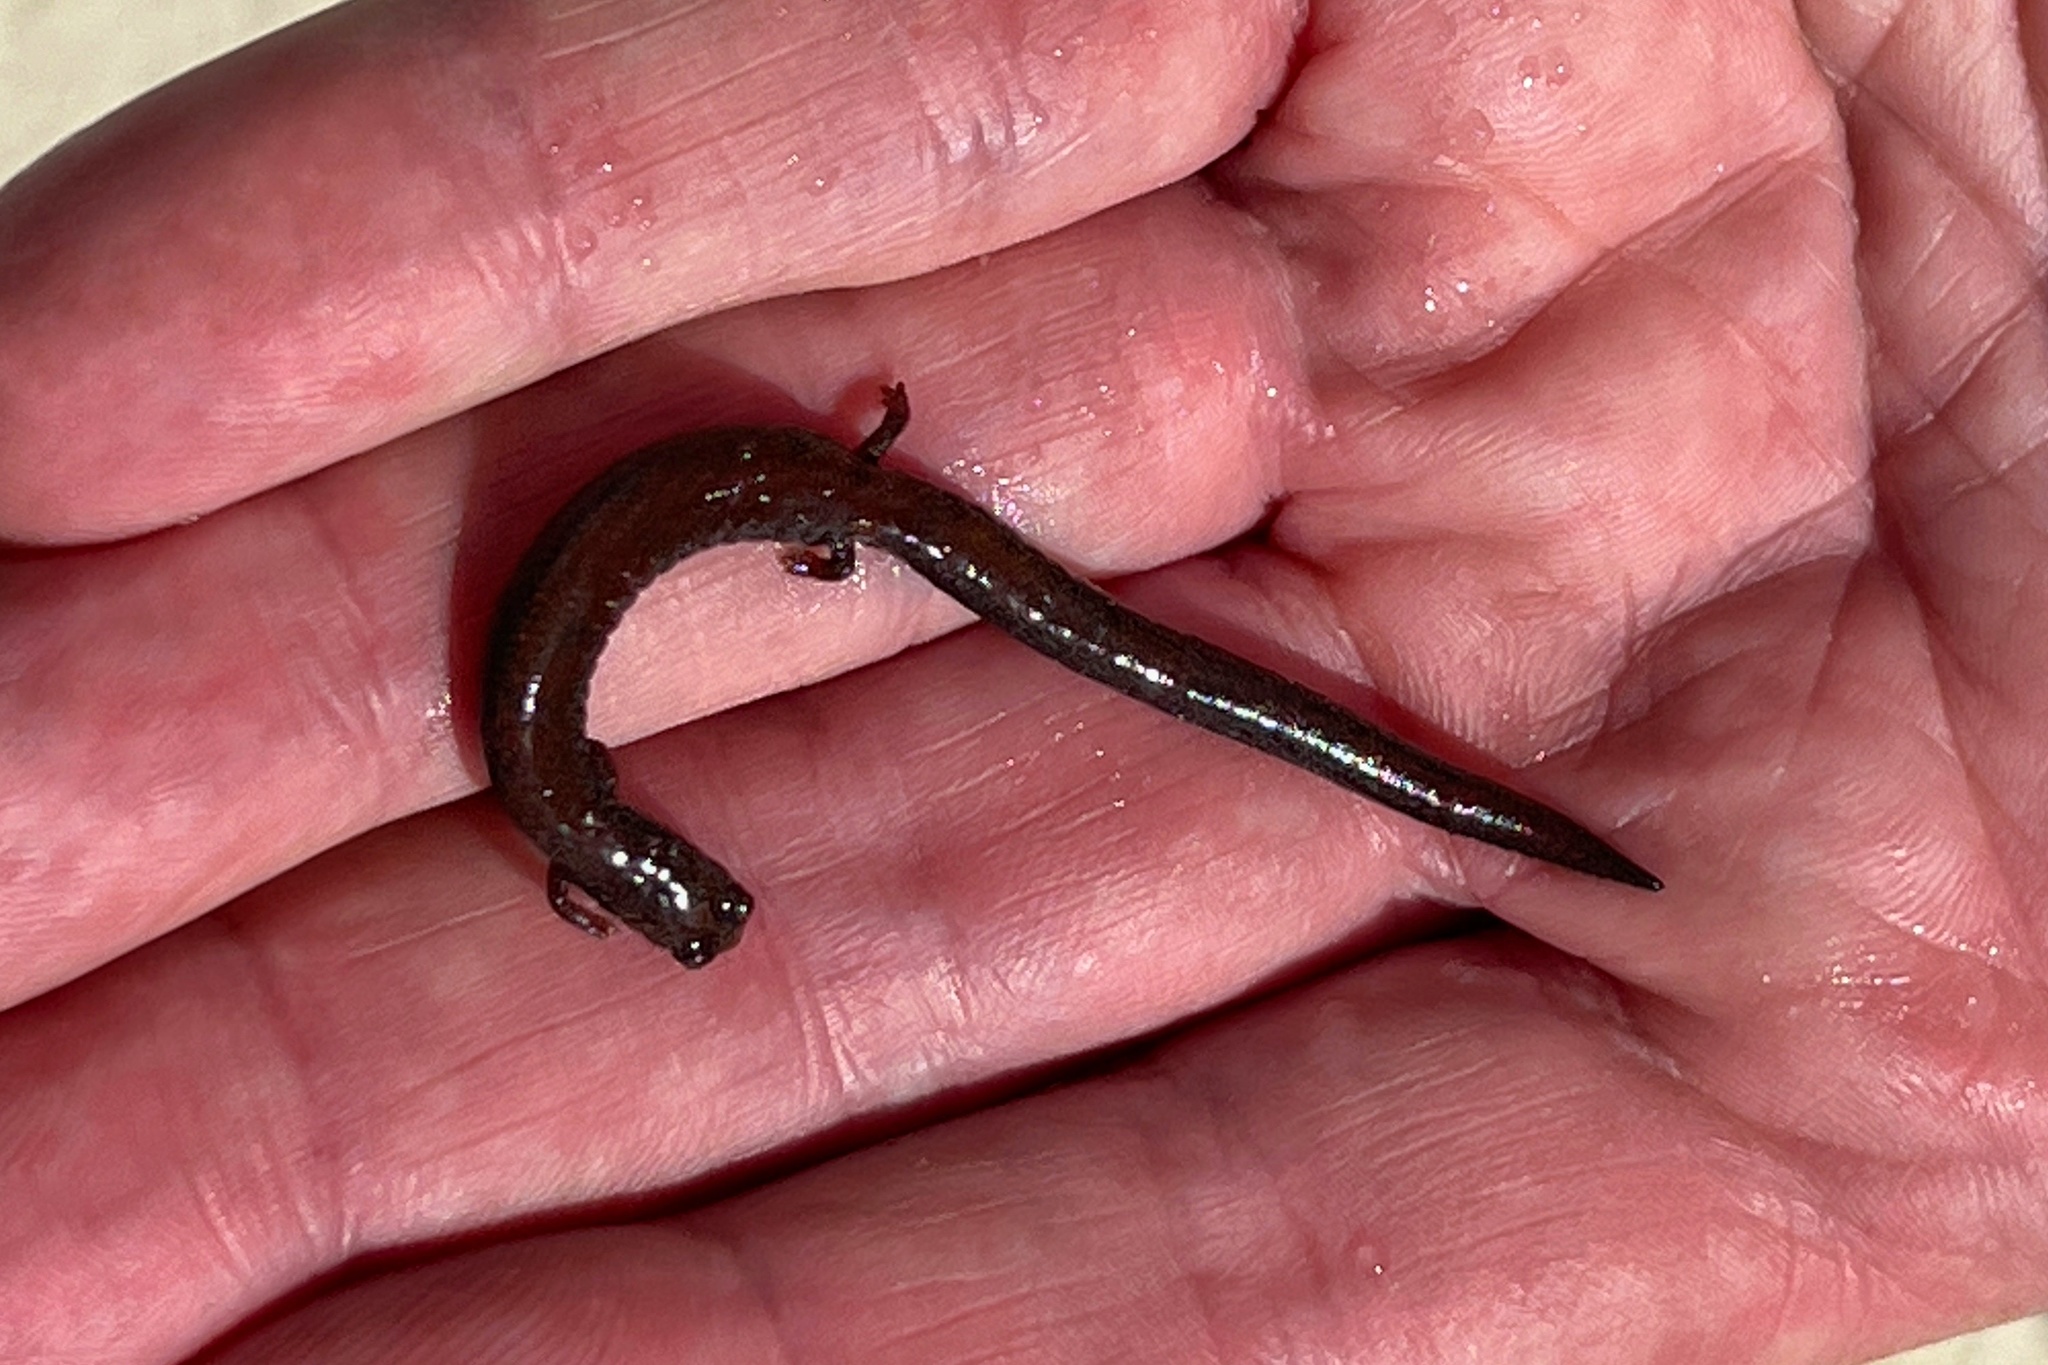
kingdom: Animalia
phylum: Chordata
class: Amphibia
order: Caudata
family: Plethodontidae
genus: Batrachoseps
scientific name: Batrachoseps nigriventris
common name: Black-bellied slender salamander
